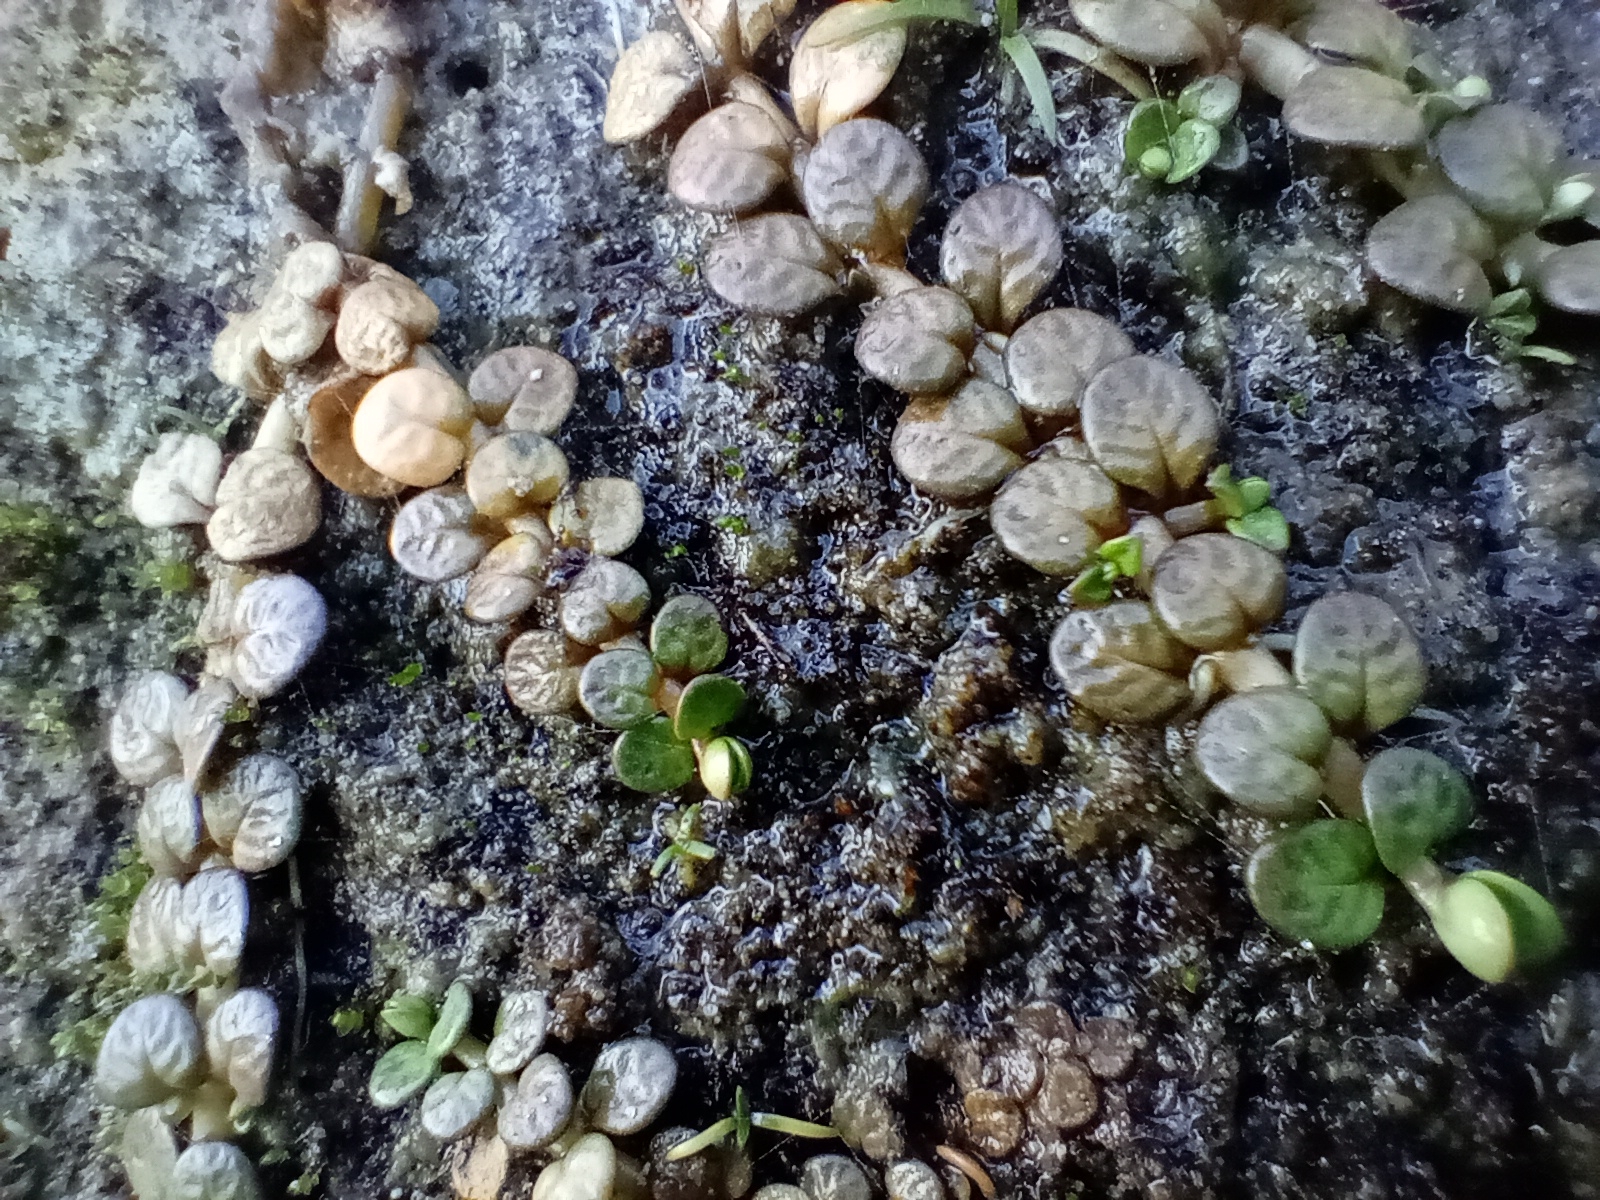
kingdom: Plantae
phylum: Tracheophyta
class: Magnoliopsida
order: Myrtales
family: Onagraceae
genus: Epilobium
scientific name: Epilobium komarovianum
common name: Bronzy willowherb
